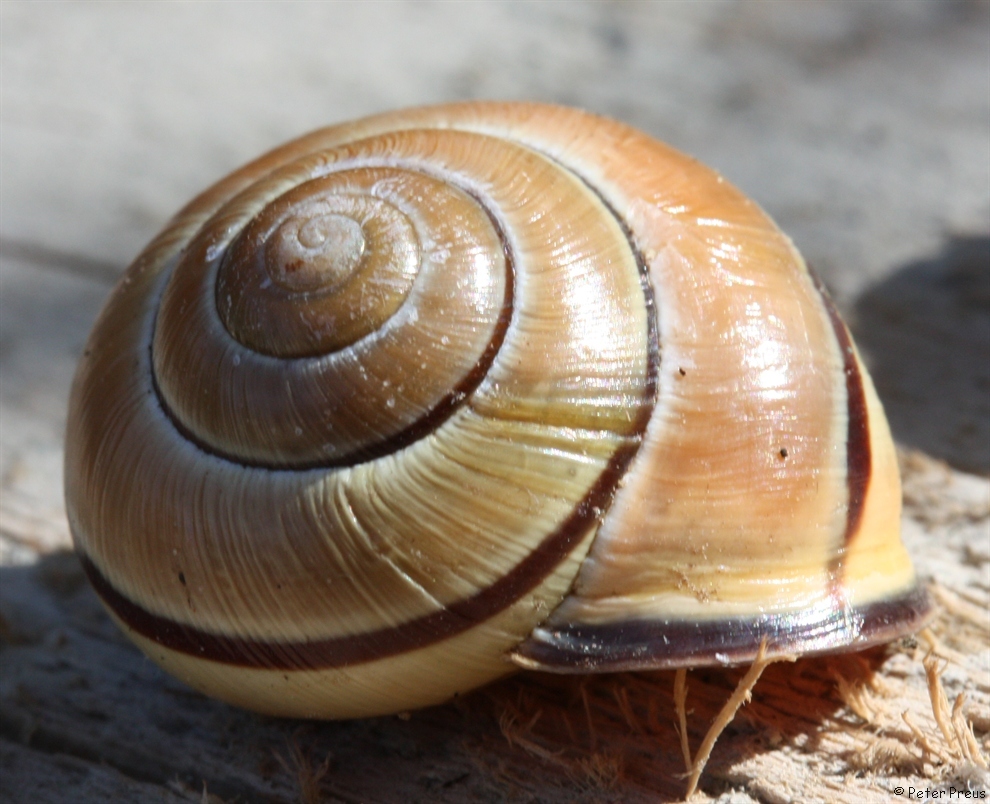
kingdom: Animalia
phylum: Mollusca
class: Gastropoda
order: Stylommatophora
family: Helicidae
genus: Cepaea
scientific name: Cepaea nemoralis
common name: Grovesnail
